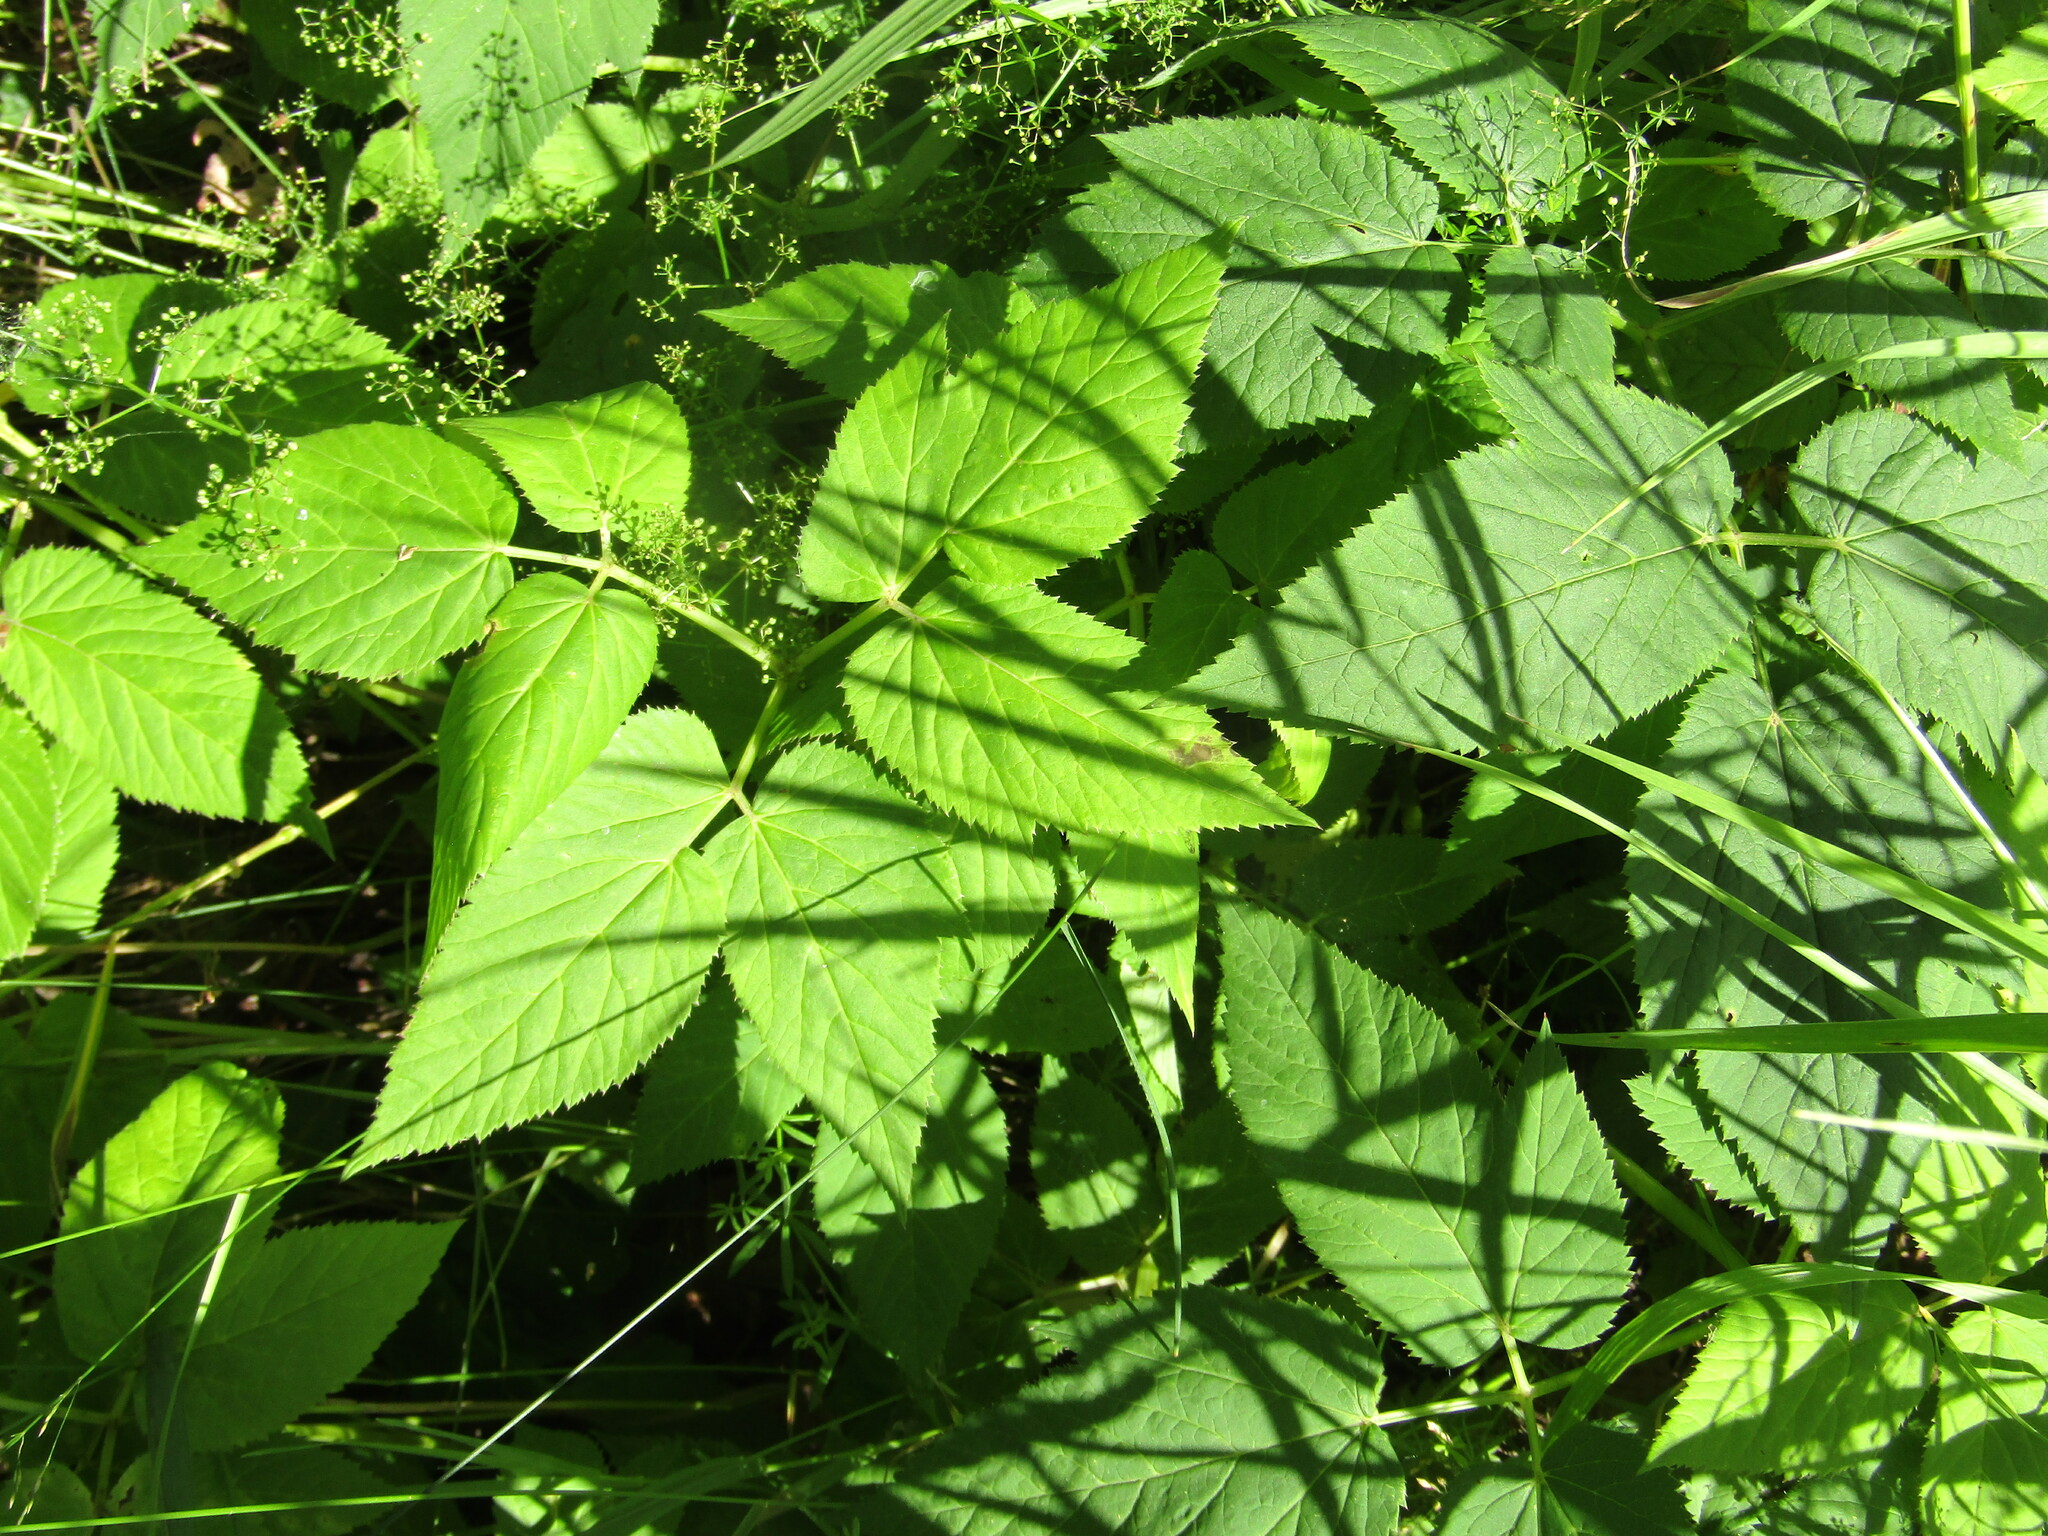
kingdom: Plantae
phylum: Tracheophyta
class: Magnoliopsida
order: Apiales
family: Apiaceae
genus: Aegopodium
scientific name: Aegopodium podagraria
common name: Ground-elder
